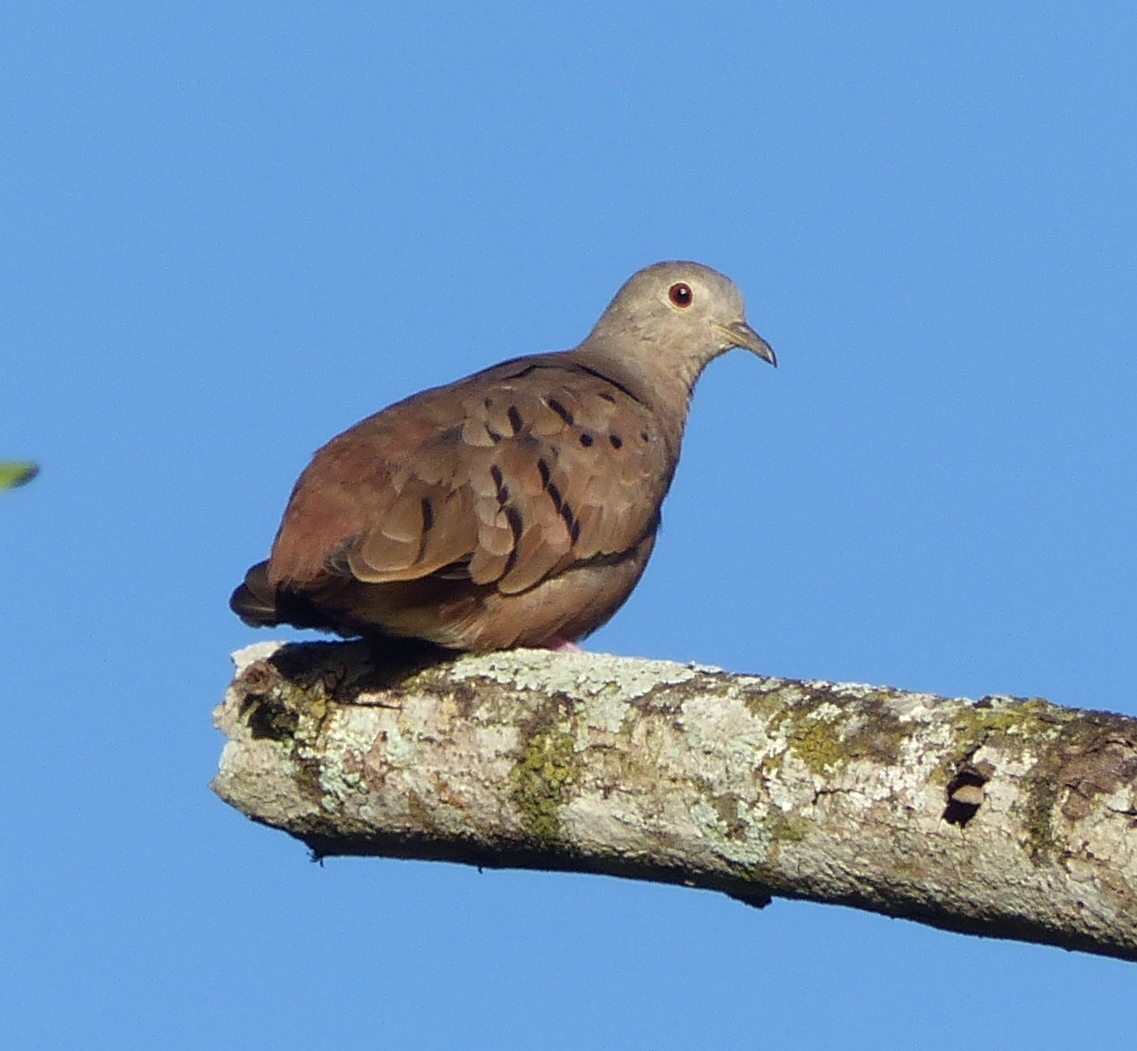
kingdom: Animalia
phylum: Chordata
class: Aves
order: Columbiformes
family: Columbidae
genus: Columbina
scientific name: Columbina talpacoti
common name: Ruddy ground dove
